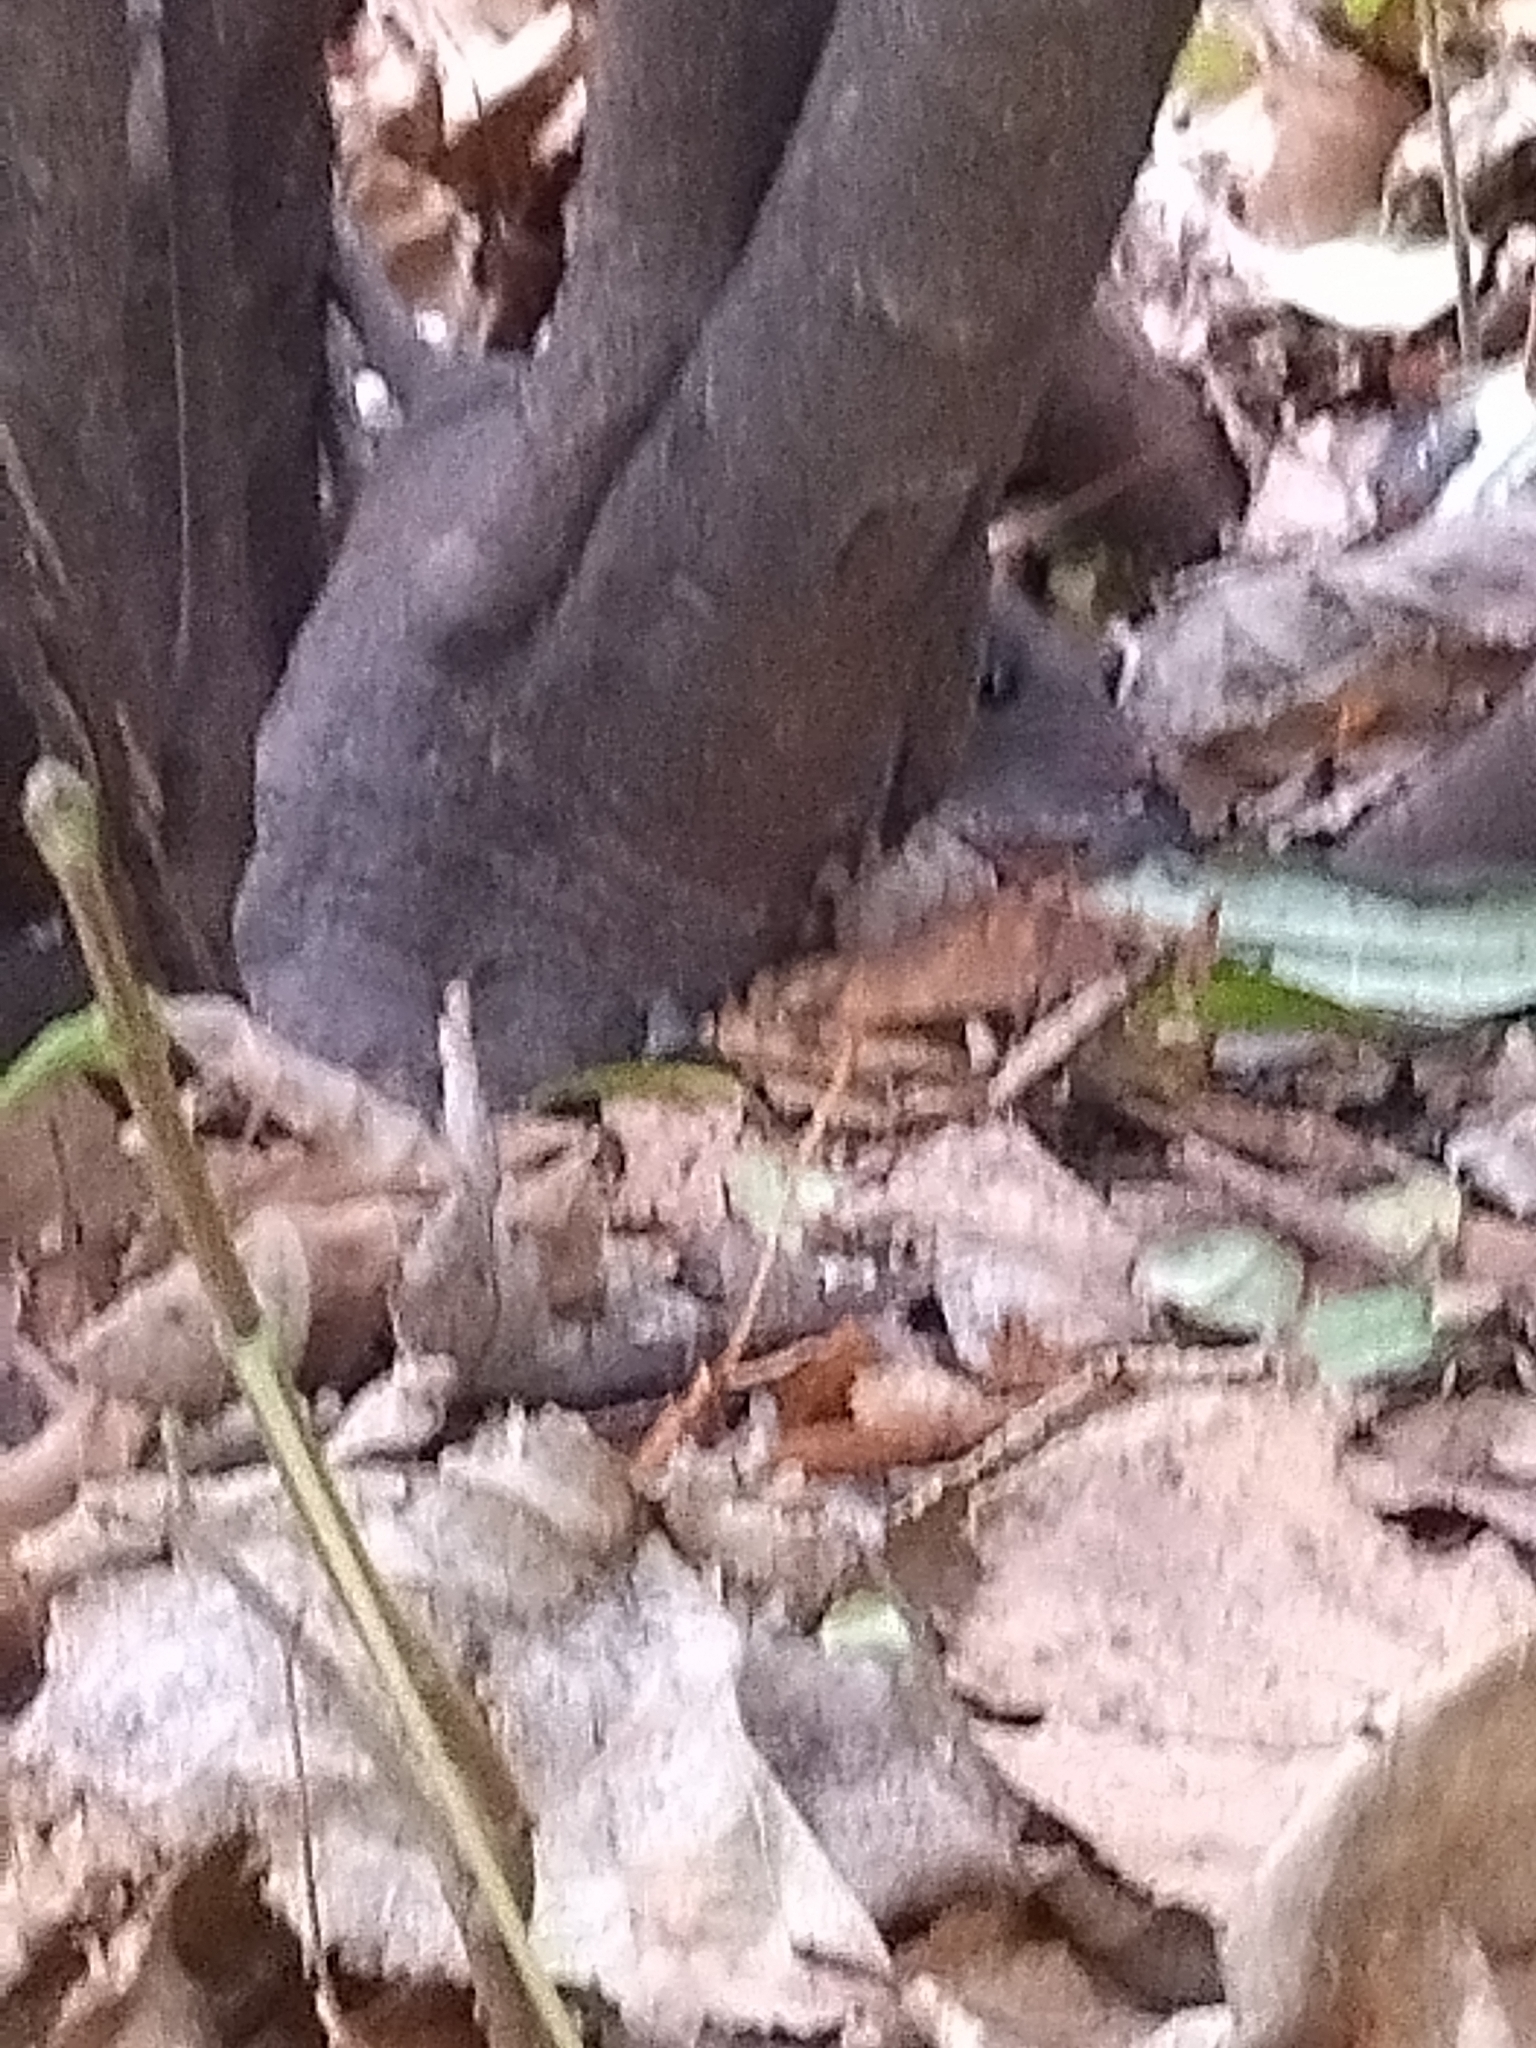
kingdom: Animalia
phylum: Chordata
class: Mammalia
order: Rodentia
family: Muridae
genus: Rattus
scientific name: Rattus norvegicus
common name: Brown rat
